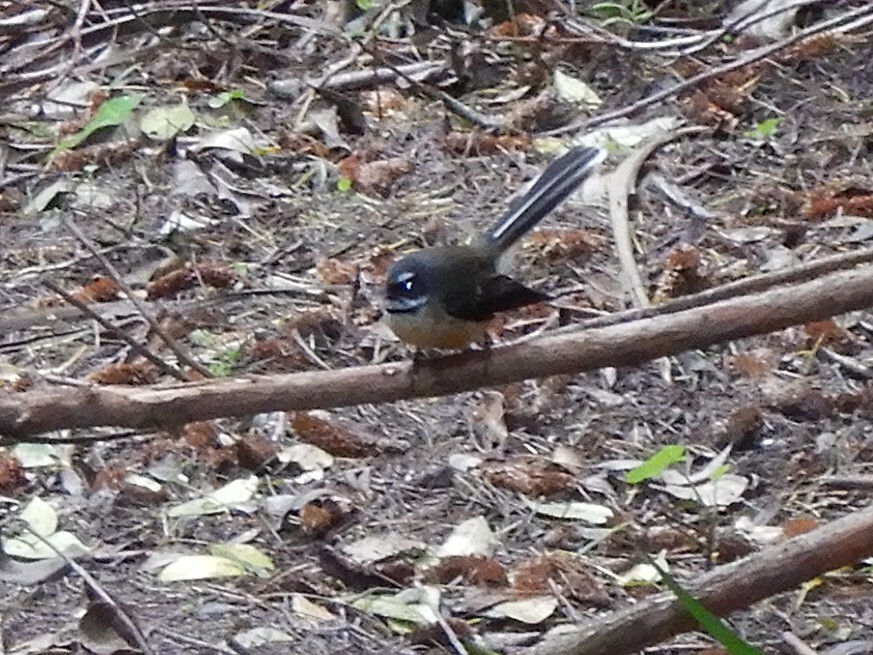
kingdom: Animalia
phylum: Chordata
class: Aves
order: Passeriformes
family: Rhipiduridae
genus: Rhipidura
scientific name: Rhipidura fuliginosa
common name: New zealand fantail
